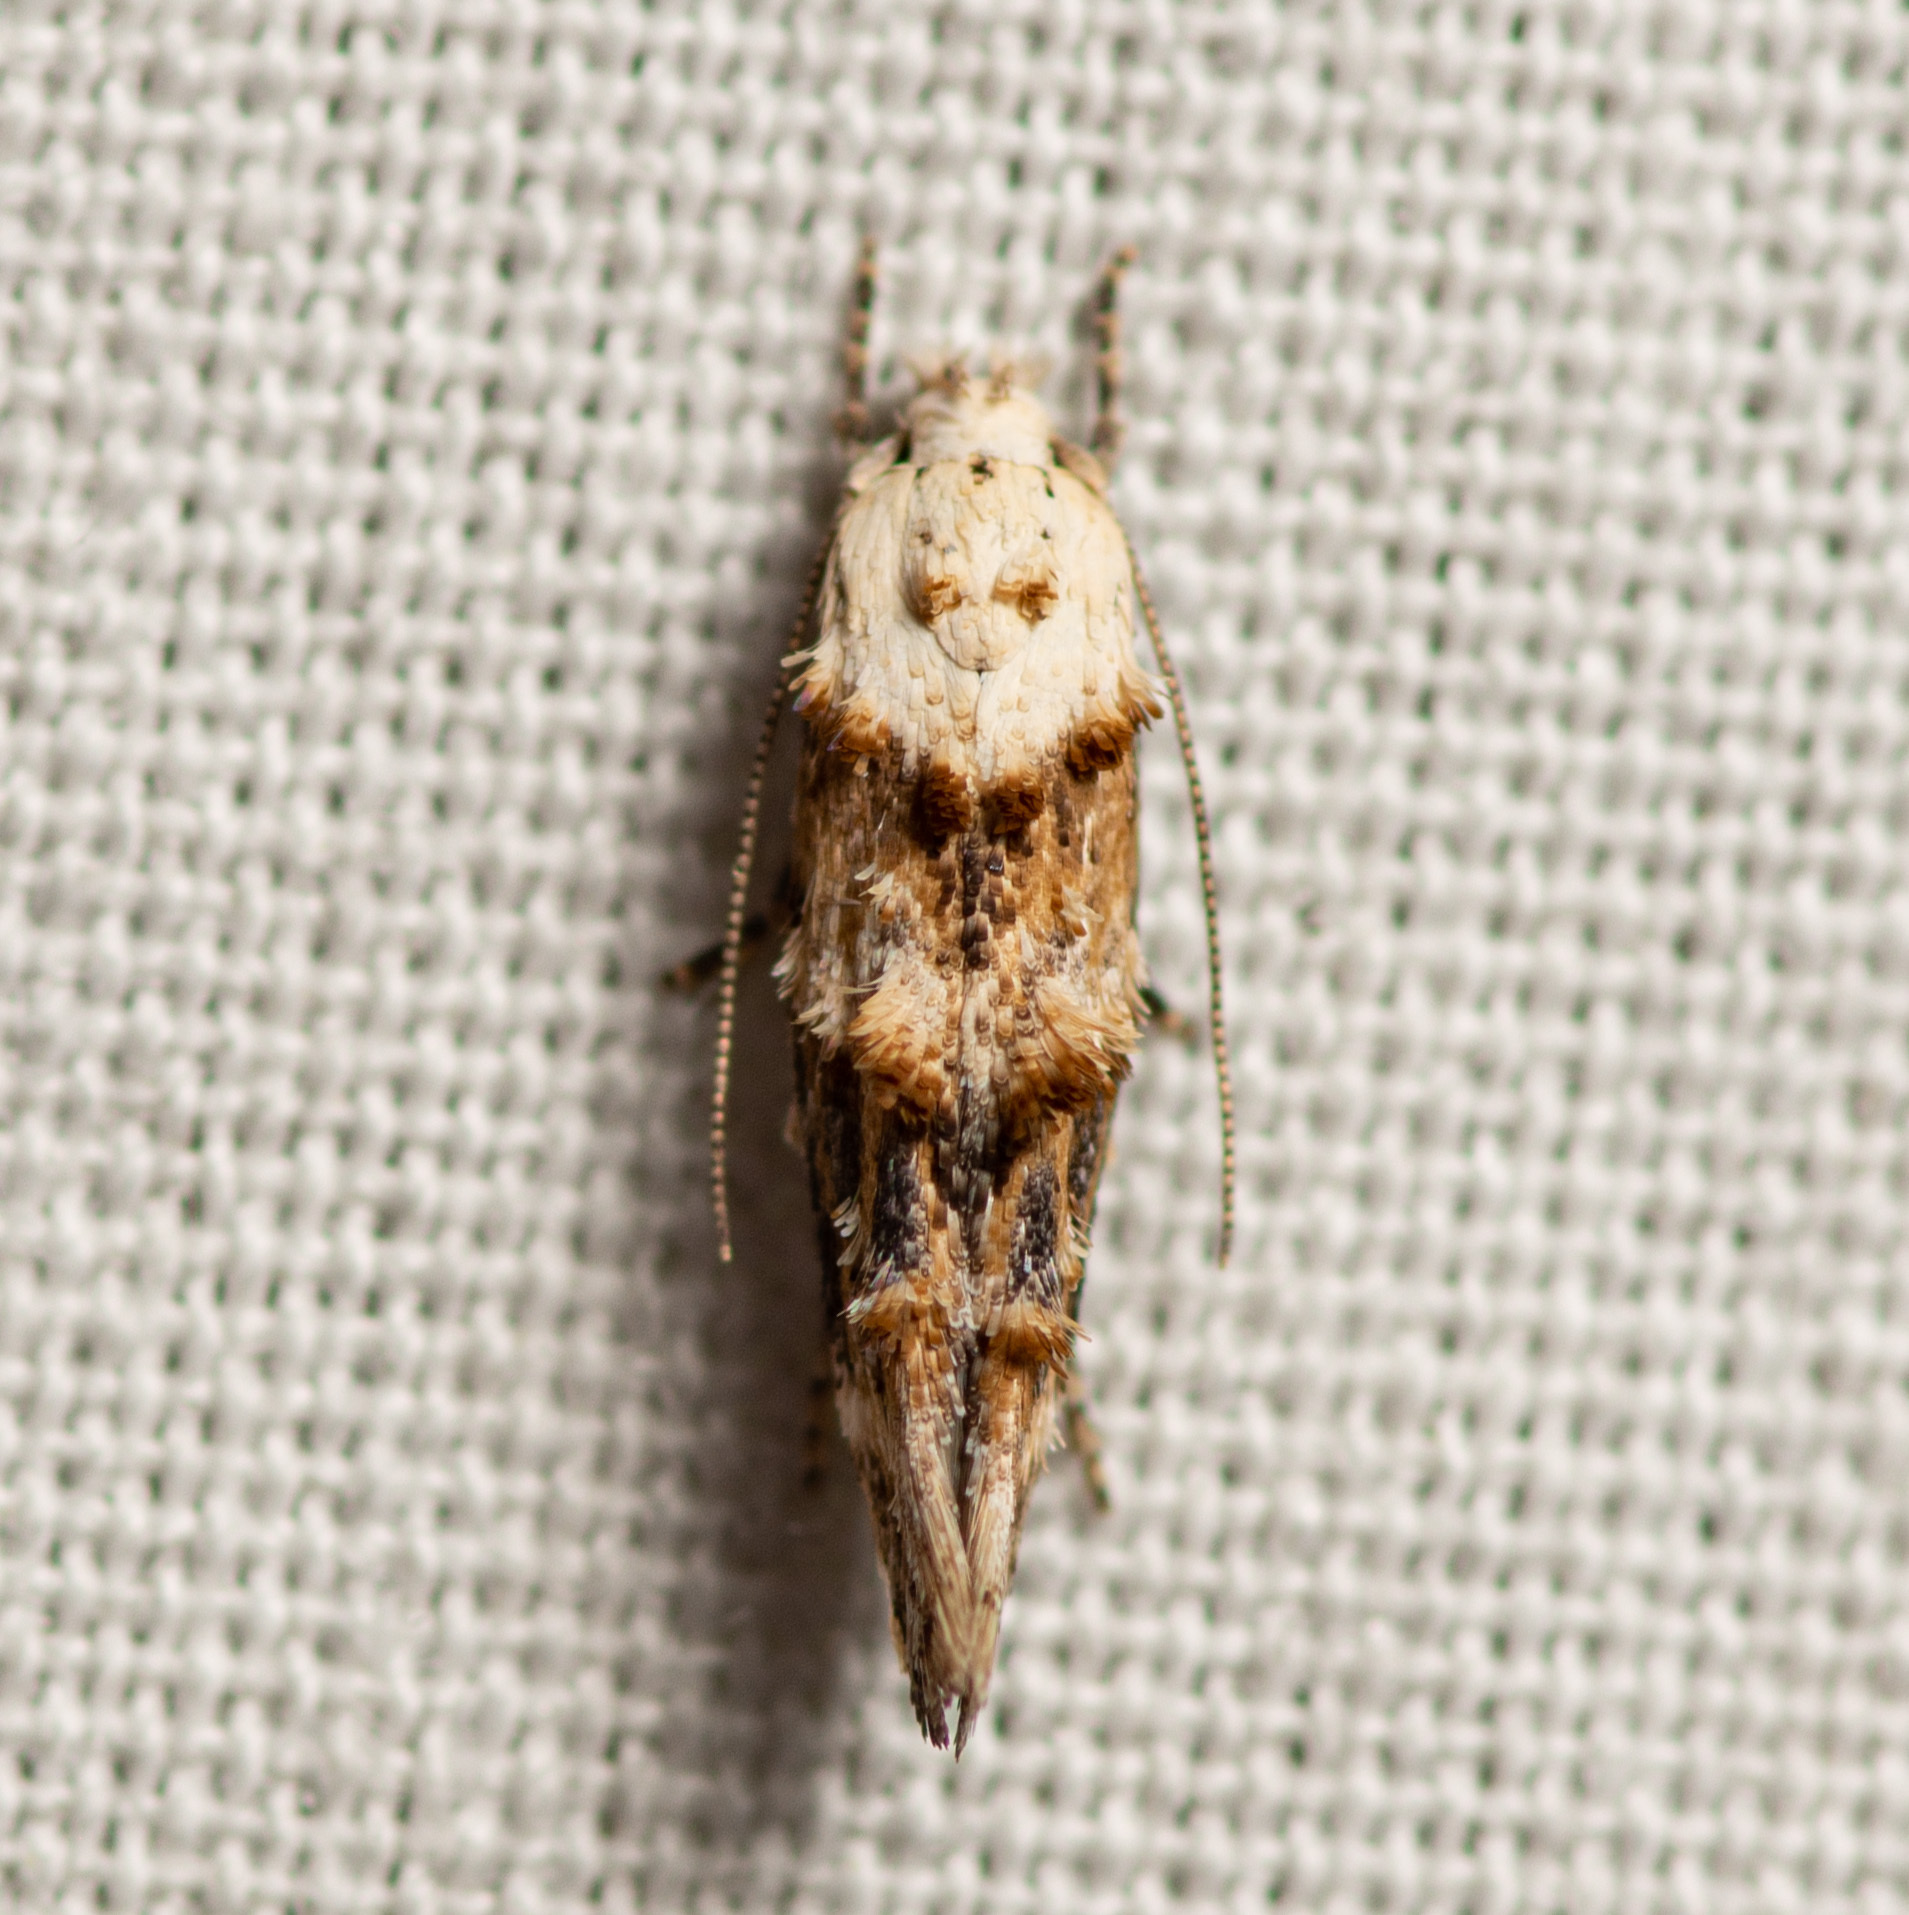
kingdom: Animalia
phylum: Arthropoda
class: Insecta
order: Lepidoptera
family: Momphidae
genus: Mompha
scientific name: Mompha albocapitella
